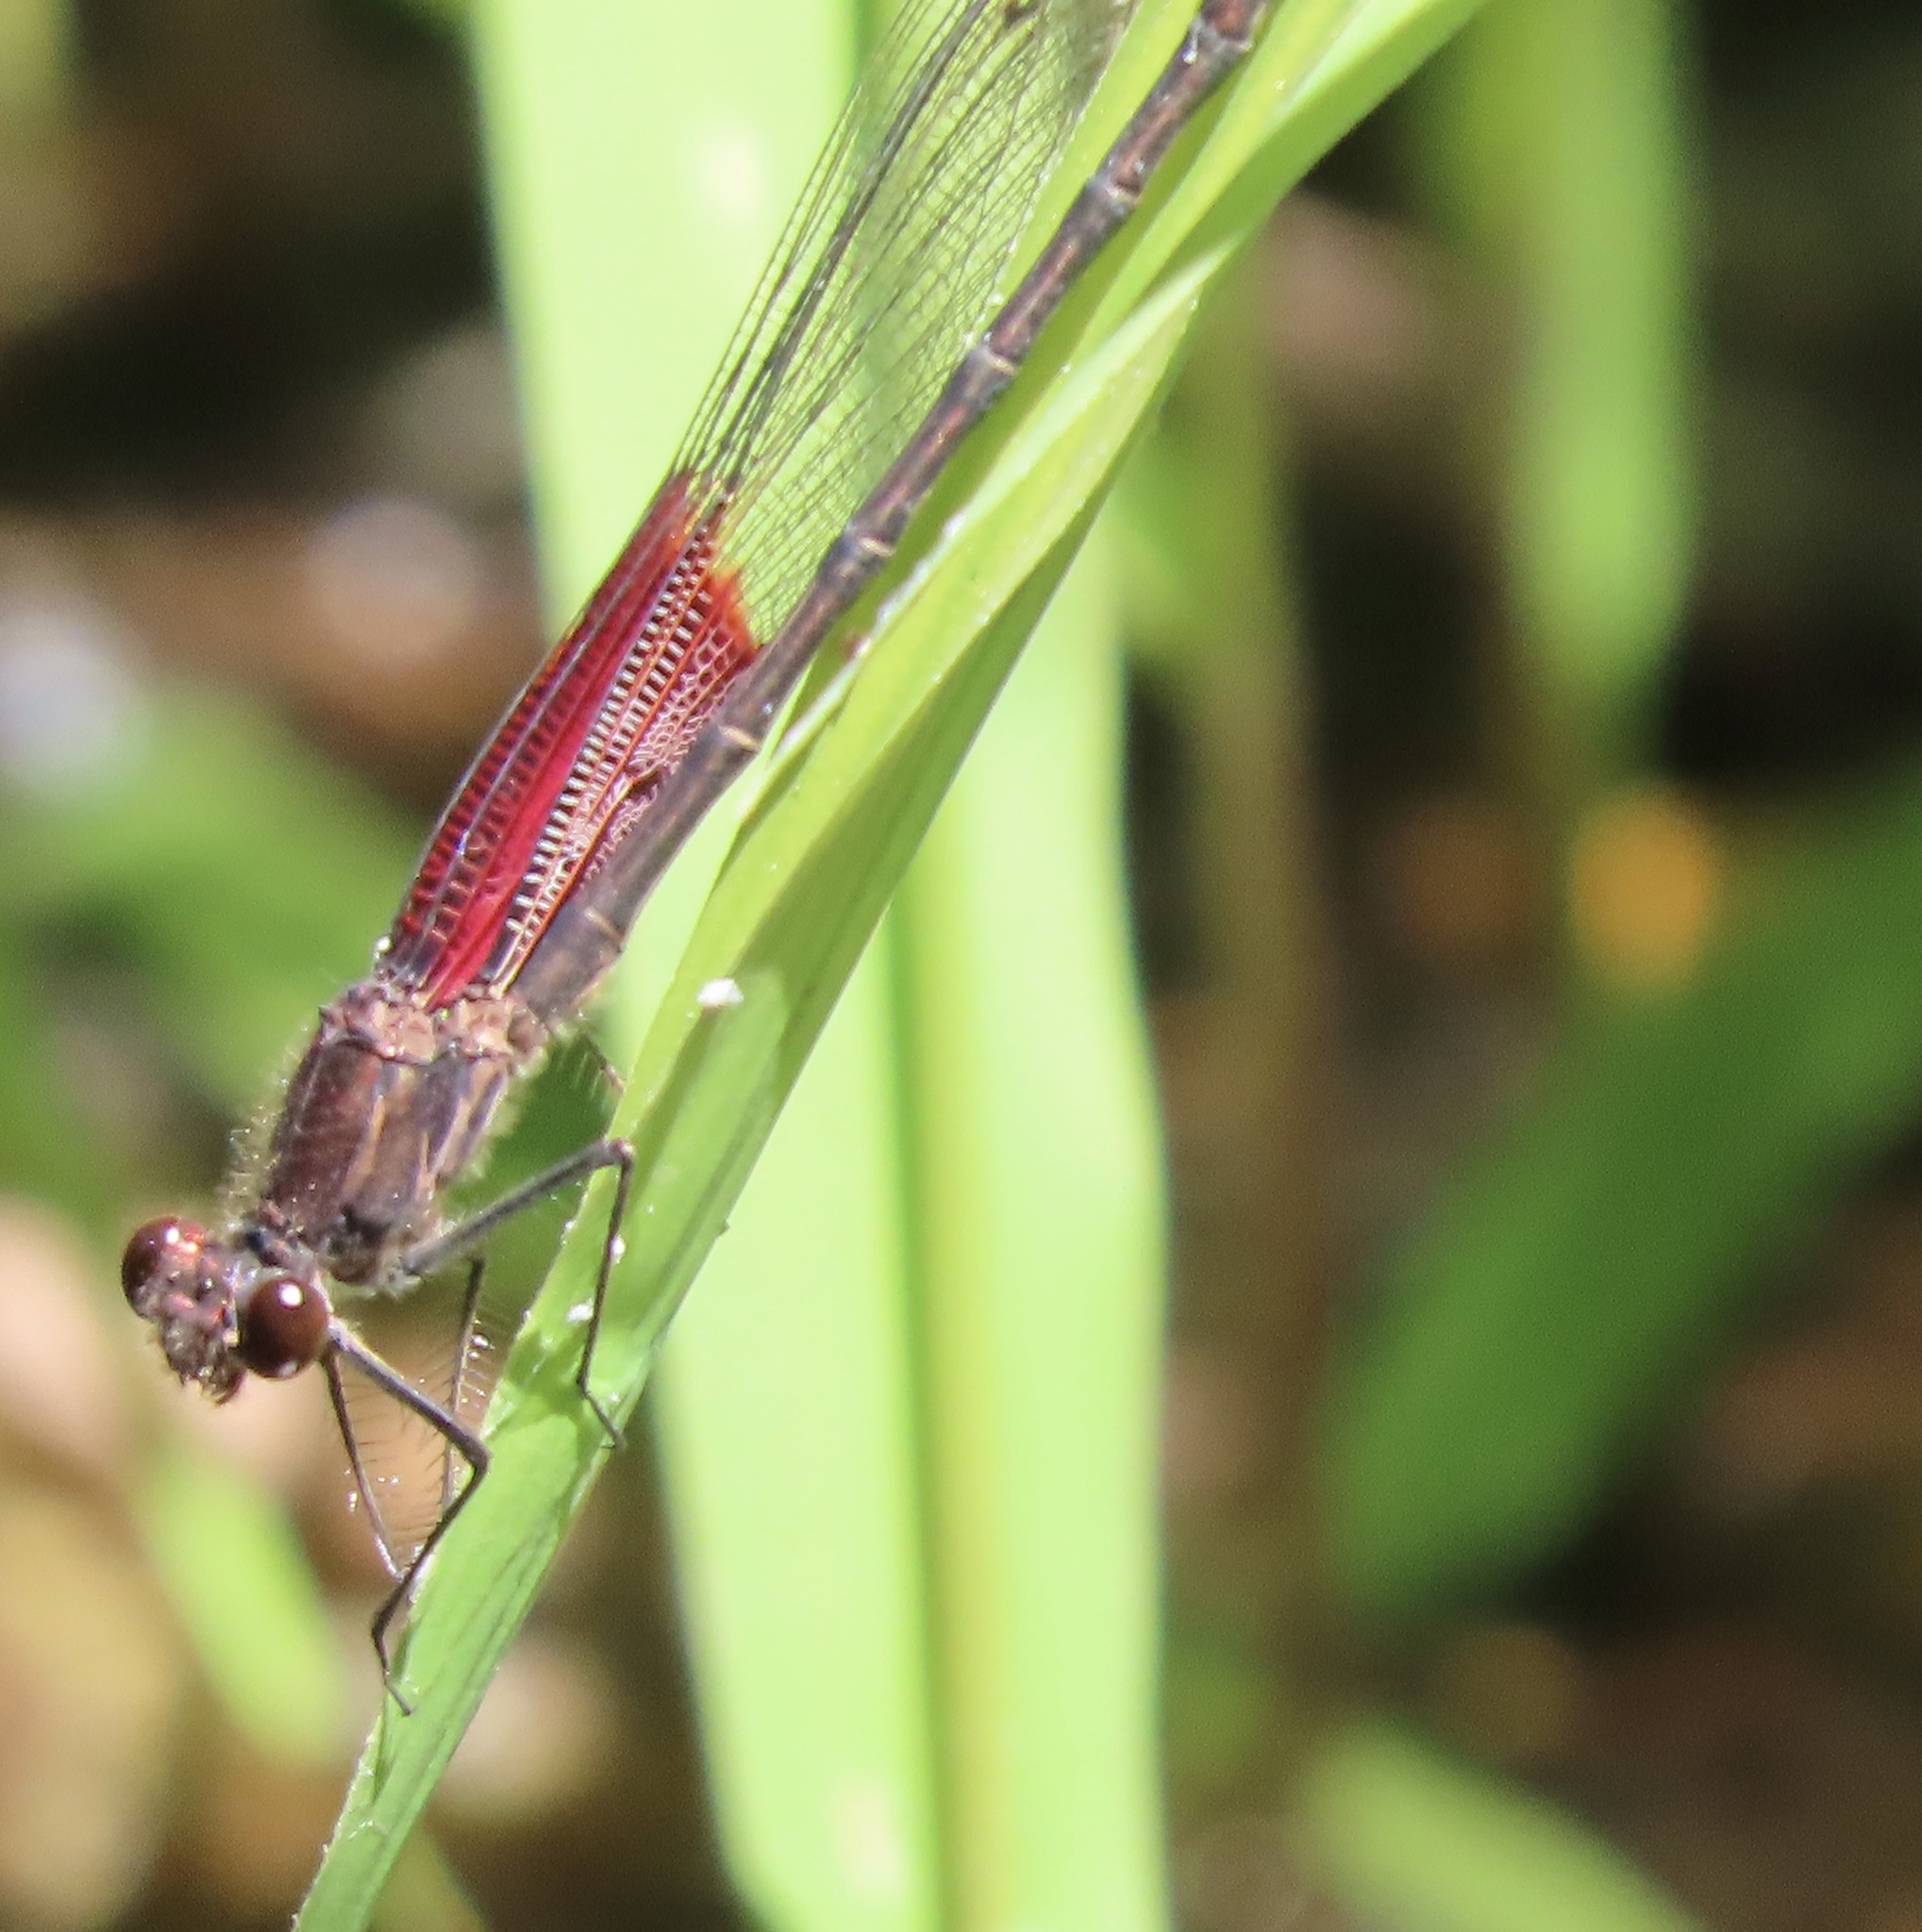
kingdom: Animalia
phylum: Arthropoda
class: Insecta
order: Odonata
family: Calopterygidae
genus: Hetaerina
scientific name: Hetaerina americana
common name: American rubyspot
